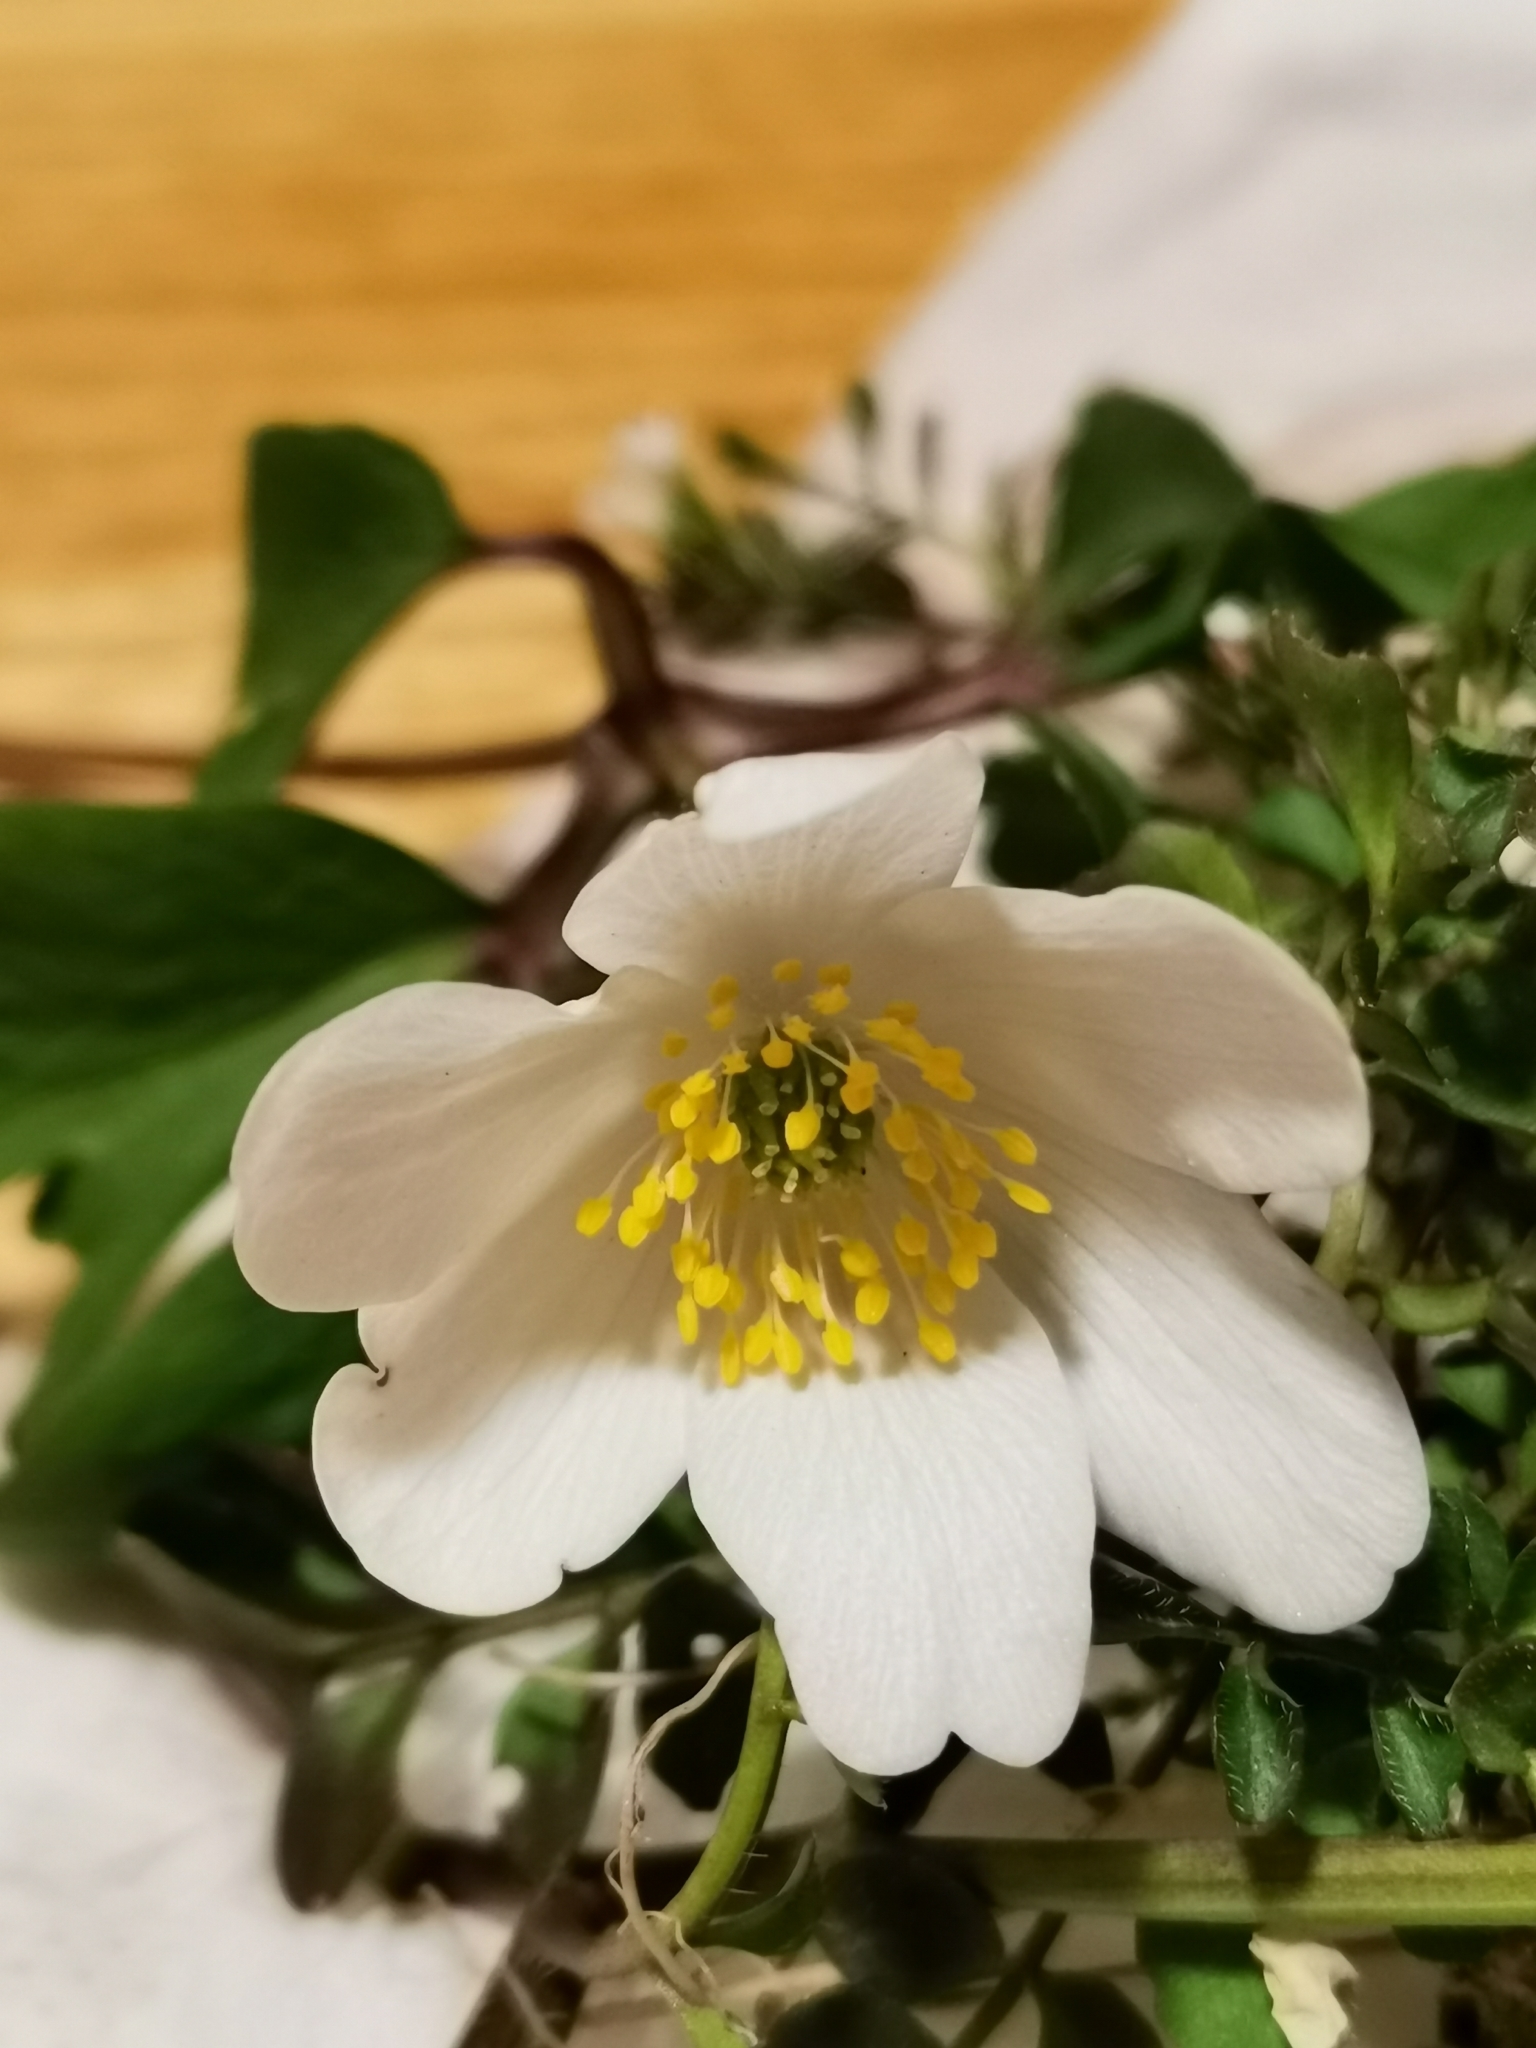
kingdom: Plantae
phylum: Tracheophyta
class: Magnoliopsida
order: Ranunculales
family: Ranunculaceae
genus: Anemone
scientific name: Anemone nemorosa
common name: Wood anemone
